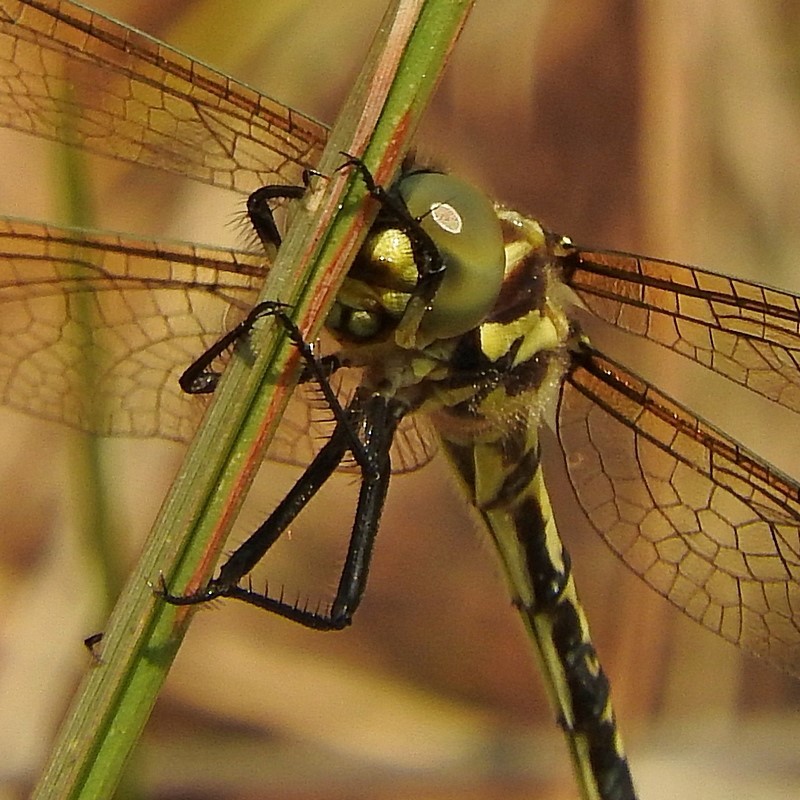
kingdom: Animalia
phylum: Arthropoda
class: Insecta
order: Odonata
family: Synthemistidae
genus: Eusynthemis
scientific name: Eusynthemis virgula
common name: Golden tigertail
